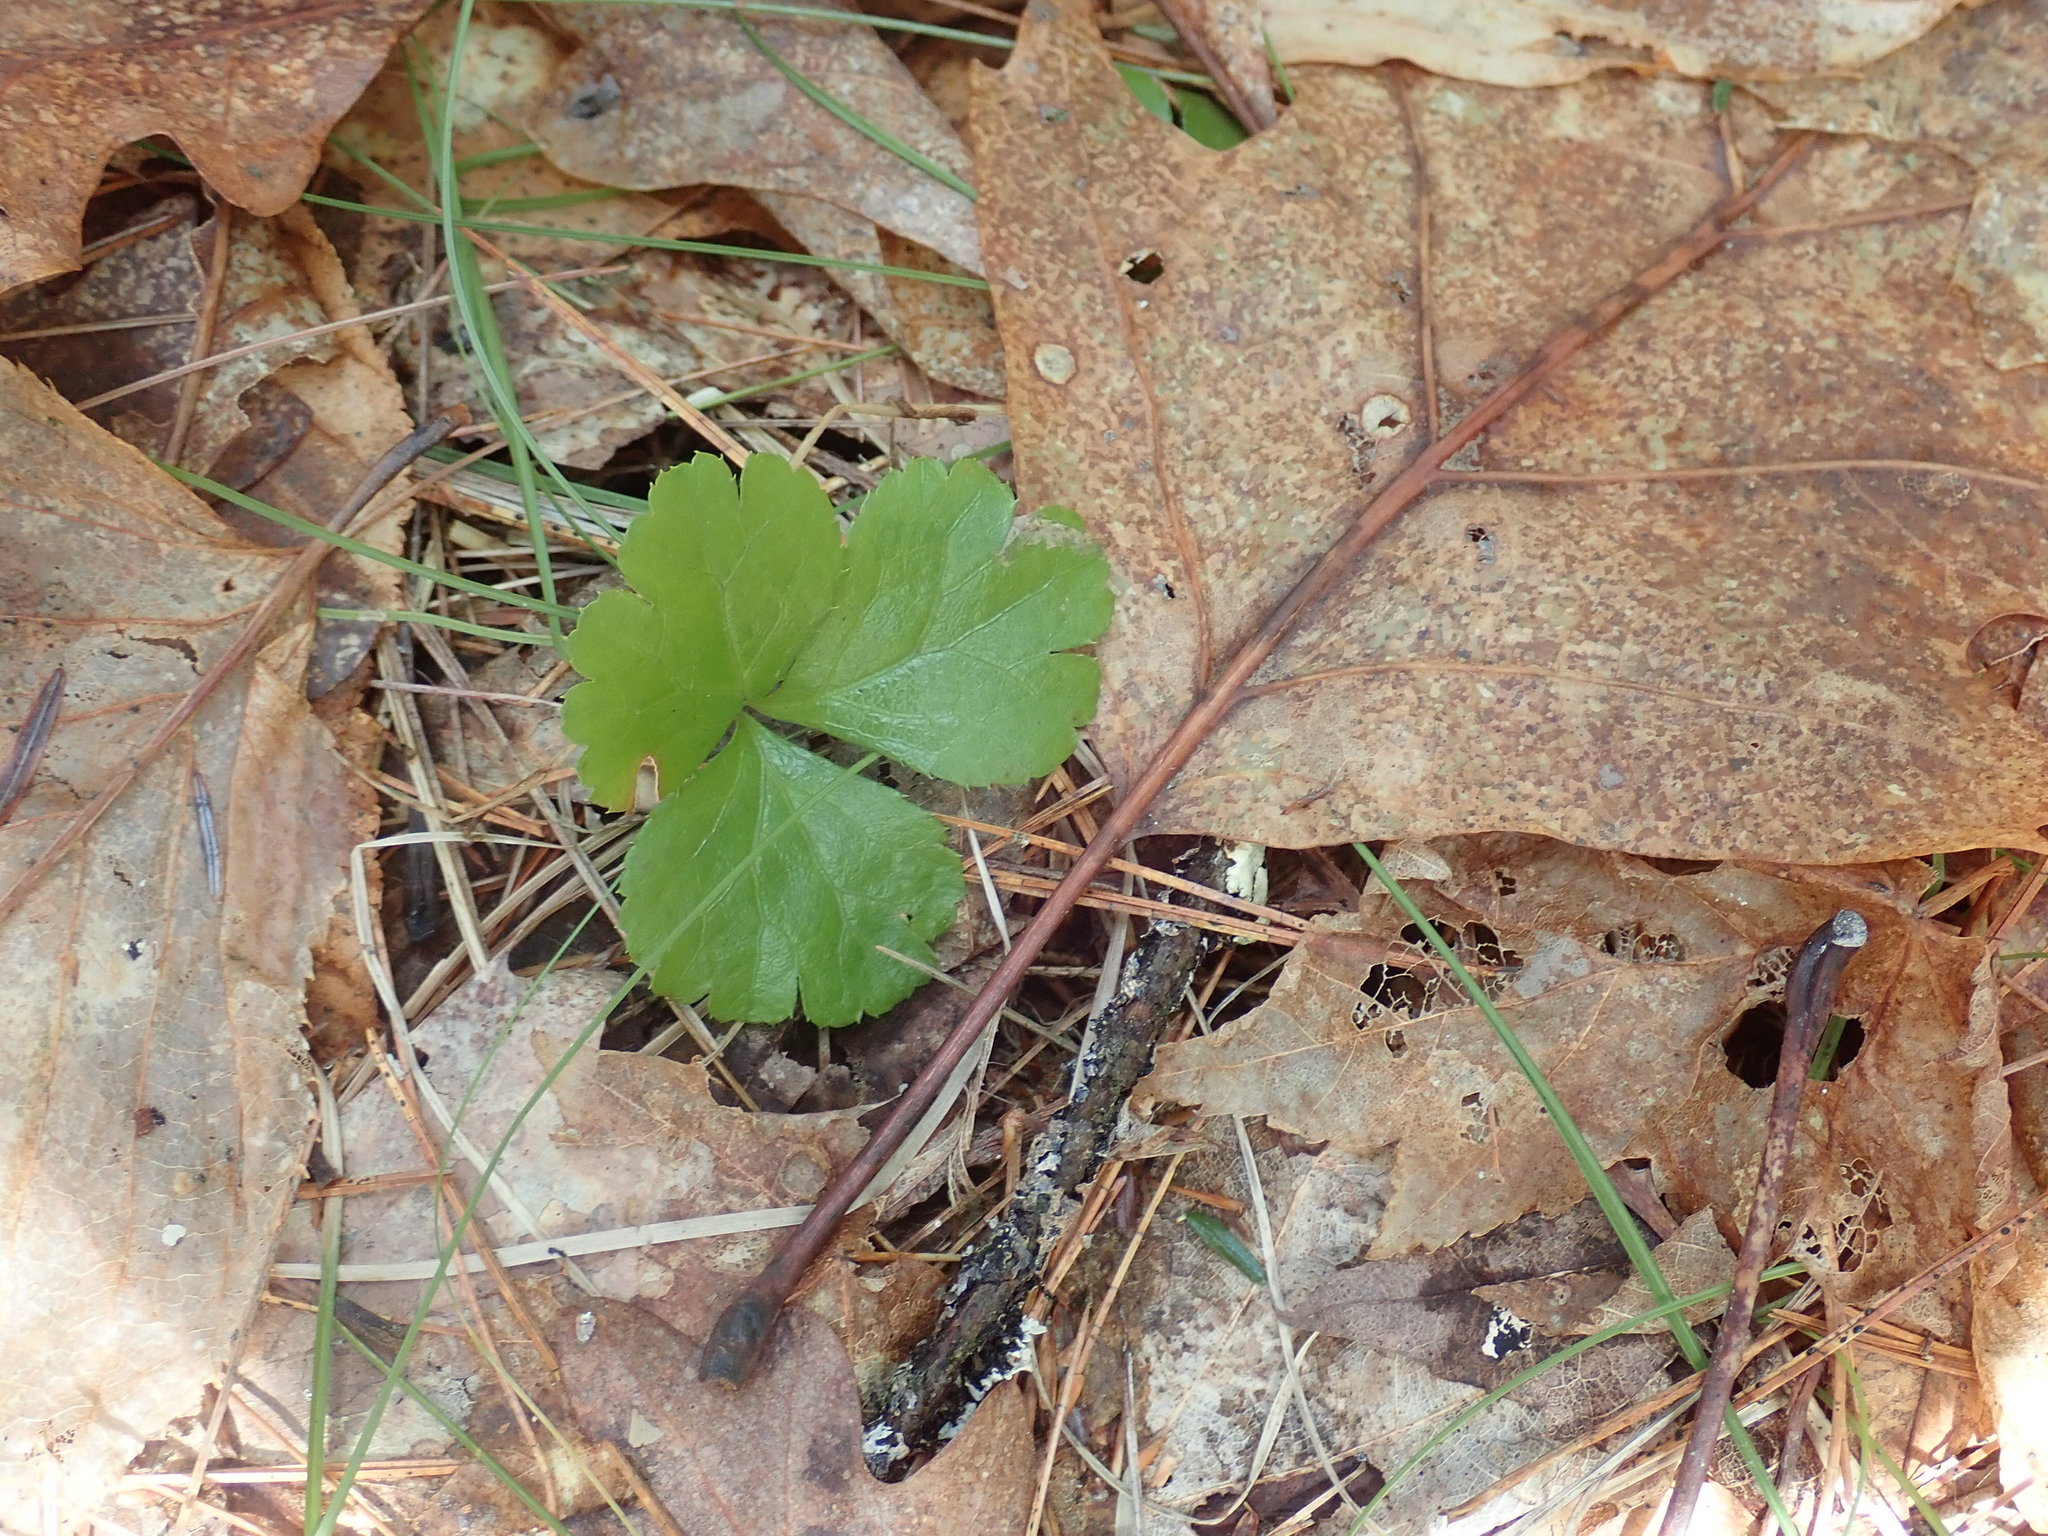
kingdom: Plantae
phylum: Tracheophyta
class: Magnoliopsida
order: Ranunculales
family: Ranunculaceae
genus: Coptis
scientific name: Coptis trifolia
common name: Canker-root
